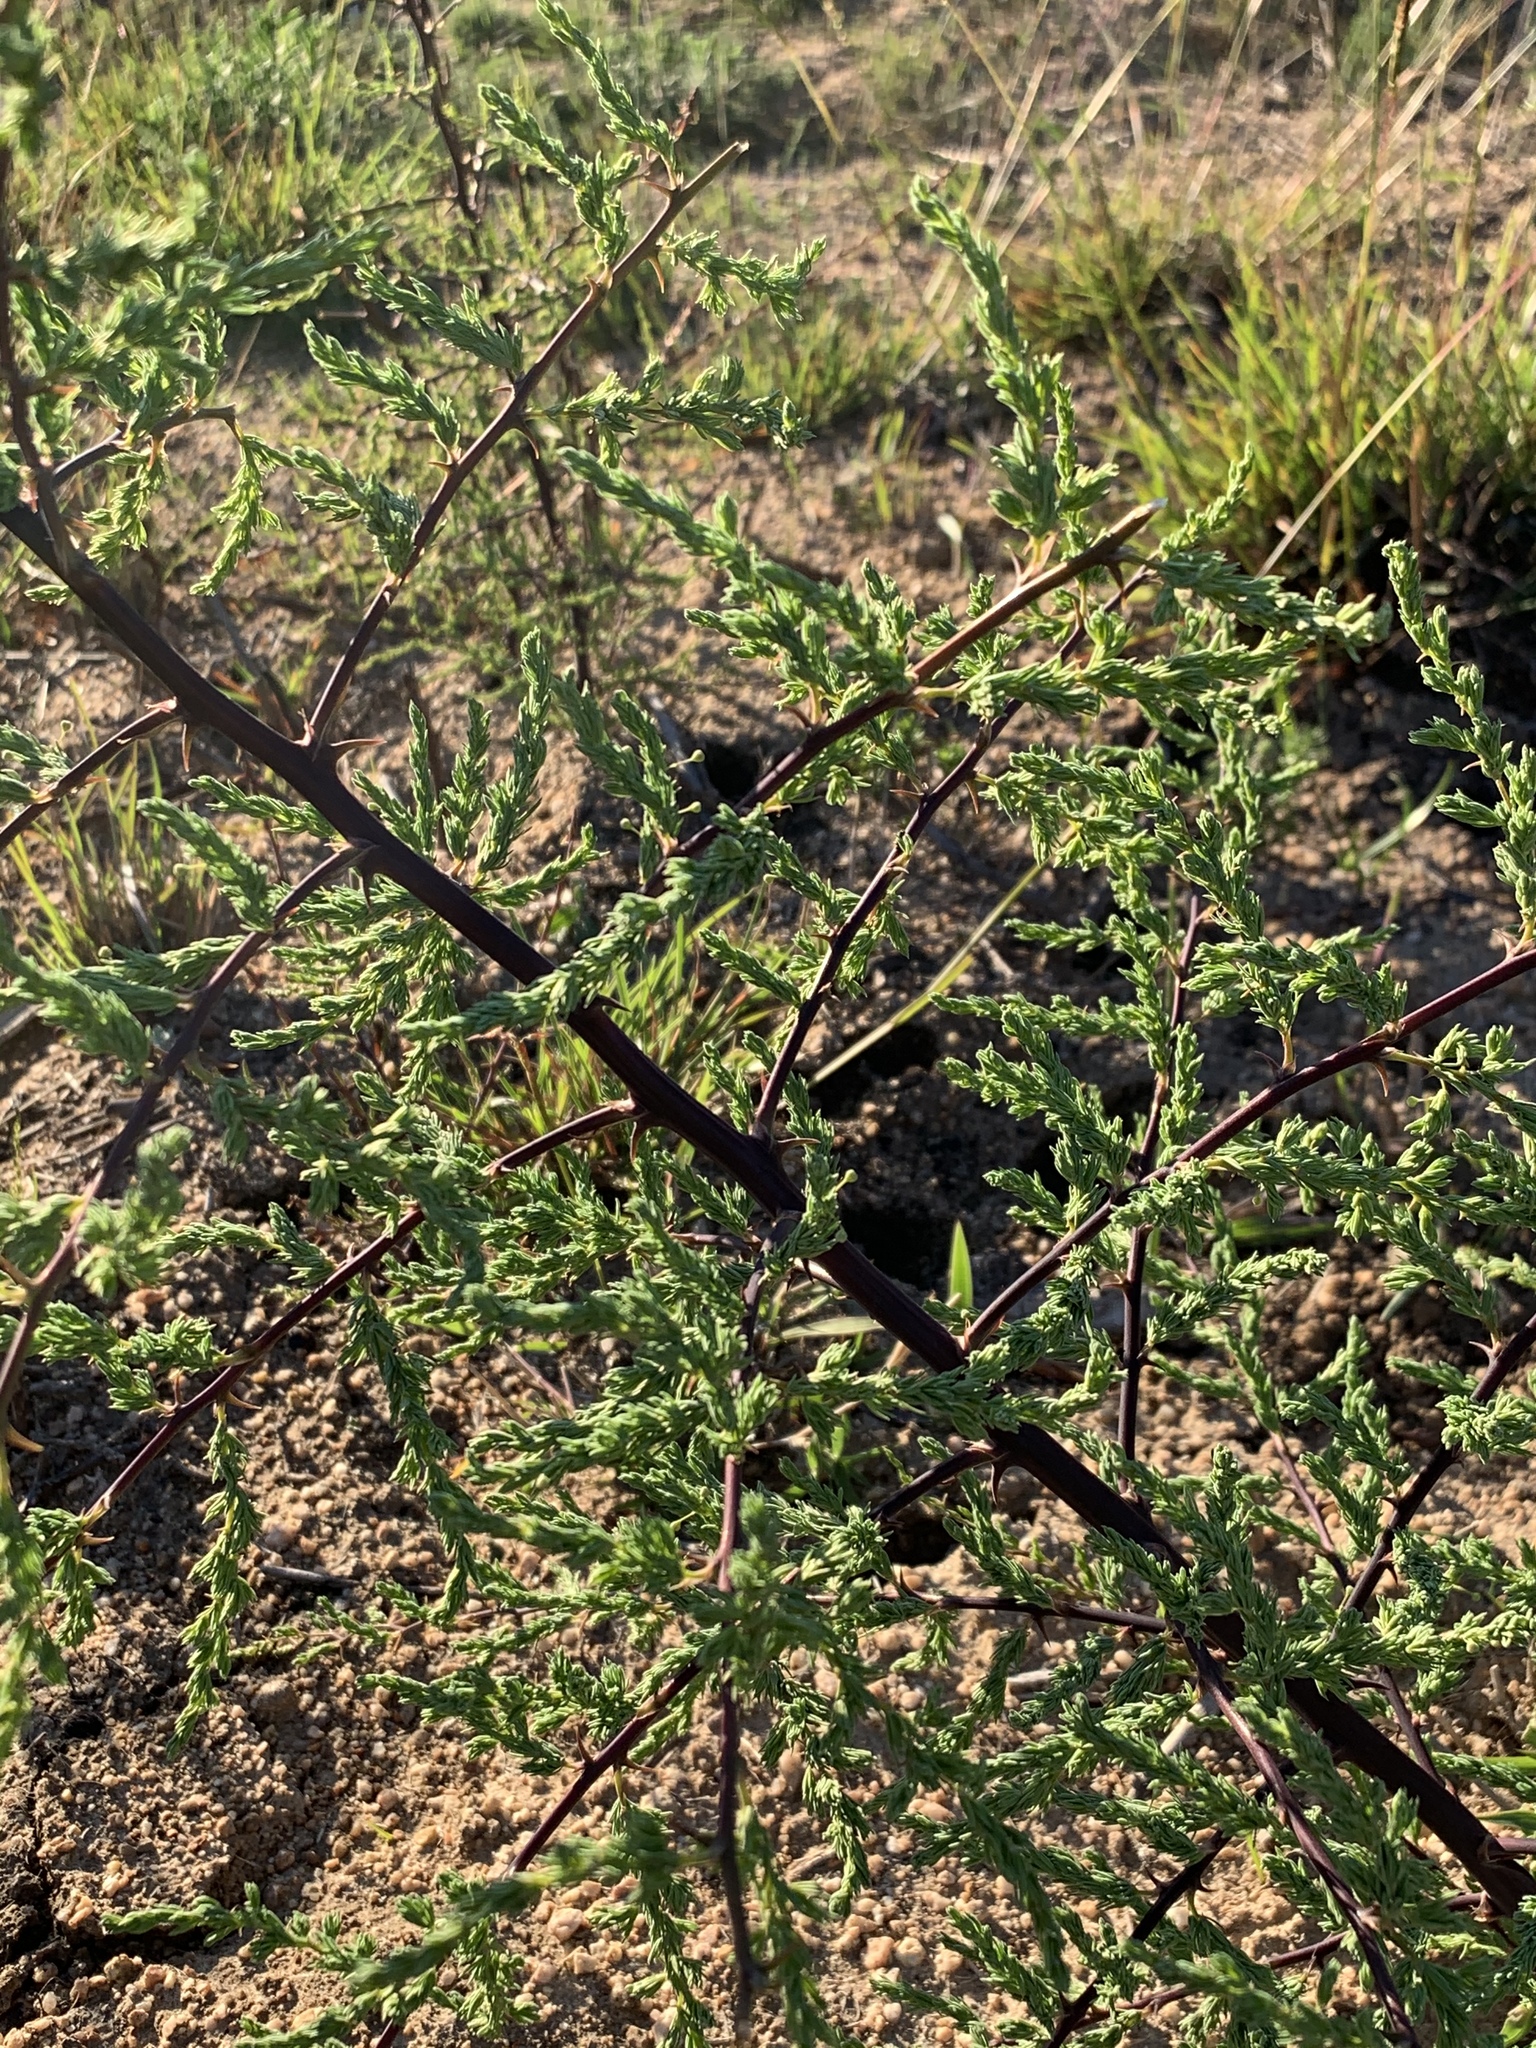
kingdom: Plantae
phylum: Tracheophyta
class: Liliopsida
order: Asparagales
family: Asparagaceae
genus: Asparagus
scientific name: Asparagus rubicundus
